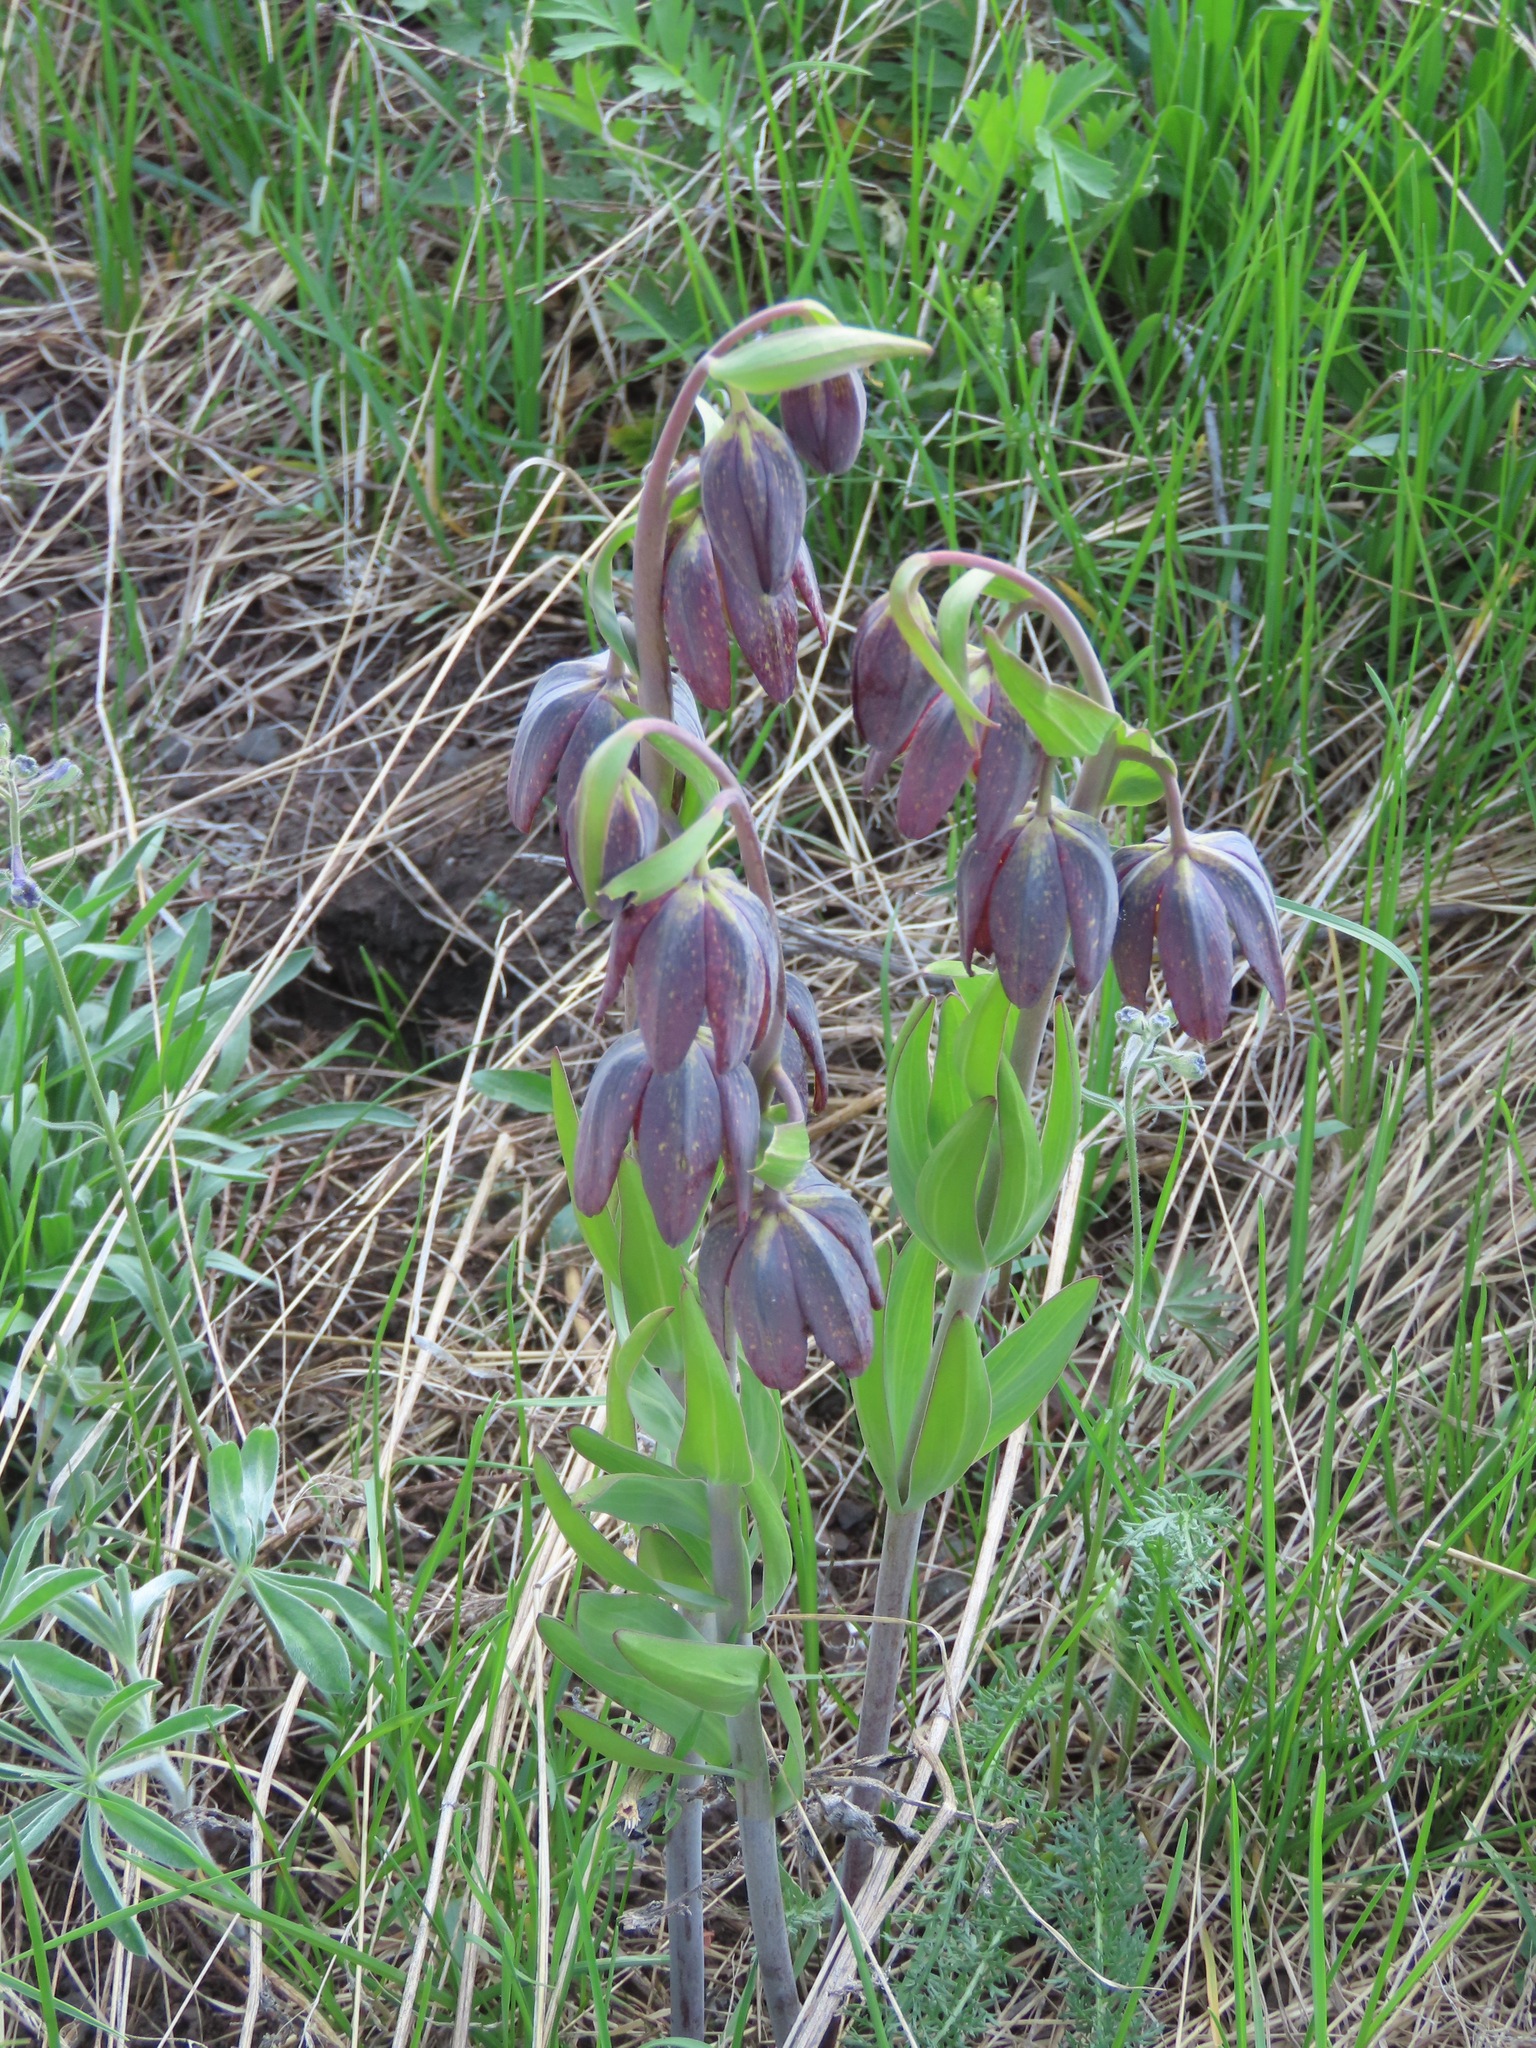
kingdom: Plantae
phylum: Tracheophyta
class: Liliopsida
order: Liliales
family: Liliaceae
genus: Fritillaria
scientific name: Fritillaria affinis
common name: Ojai fritillary
